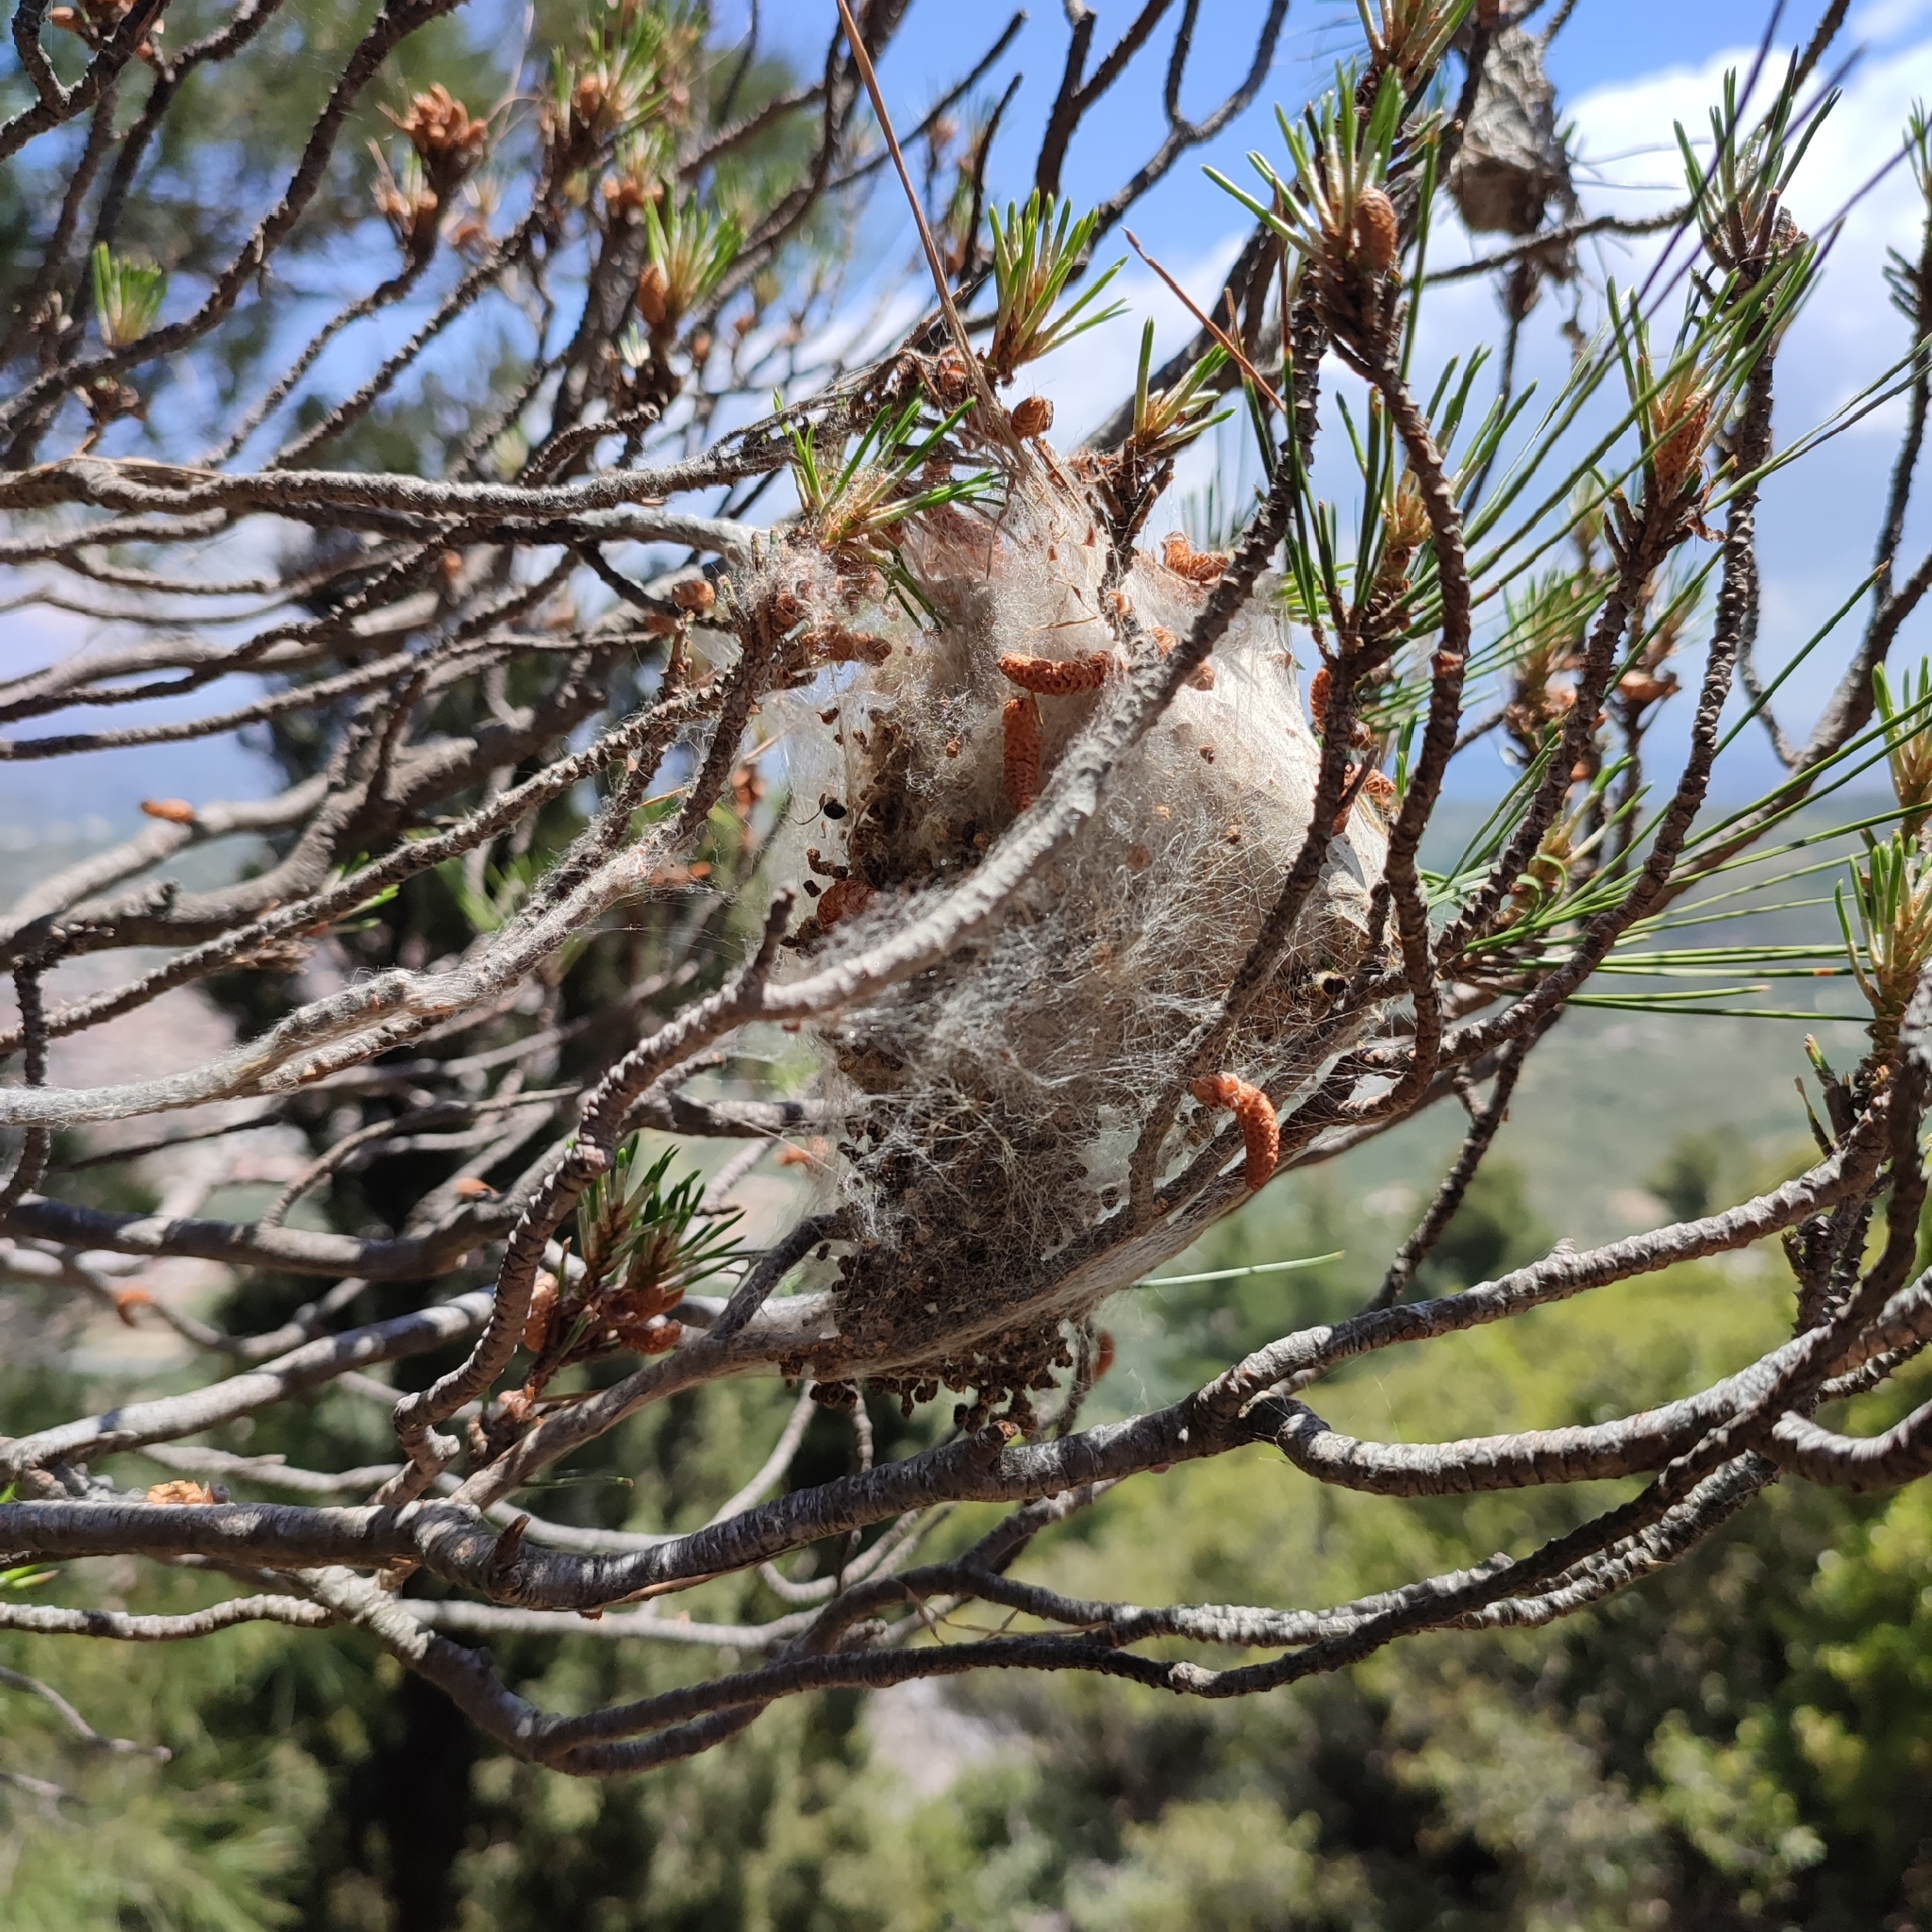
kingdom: Animalia
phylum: Arthropoda
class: Insecta
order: Lepidoptera
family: Notodontidae
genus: Thaumetopoea
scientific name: Thaumetopoea
